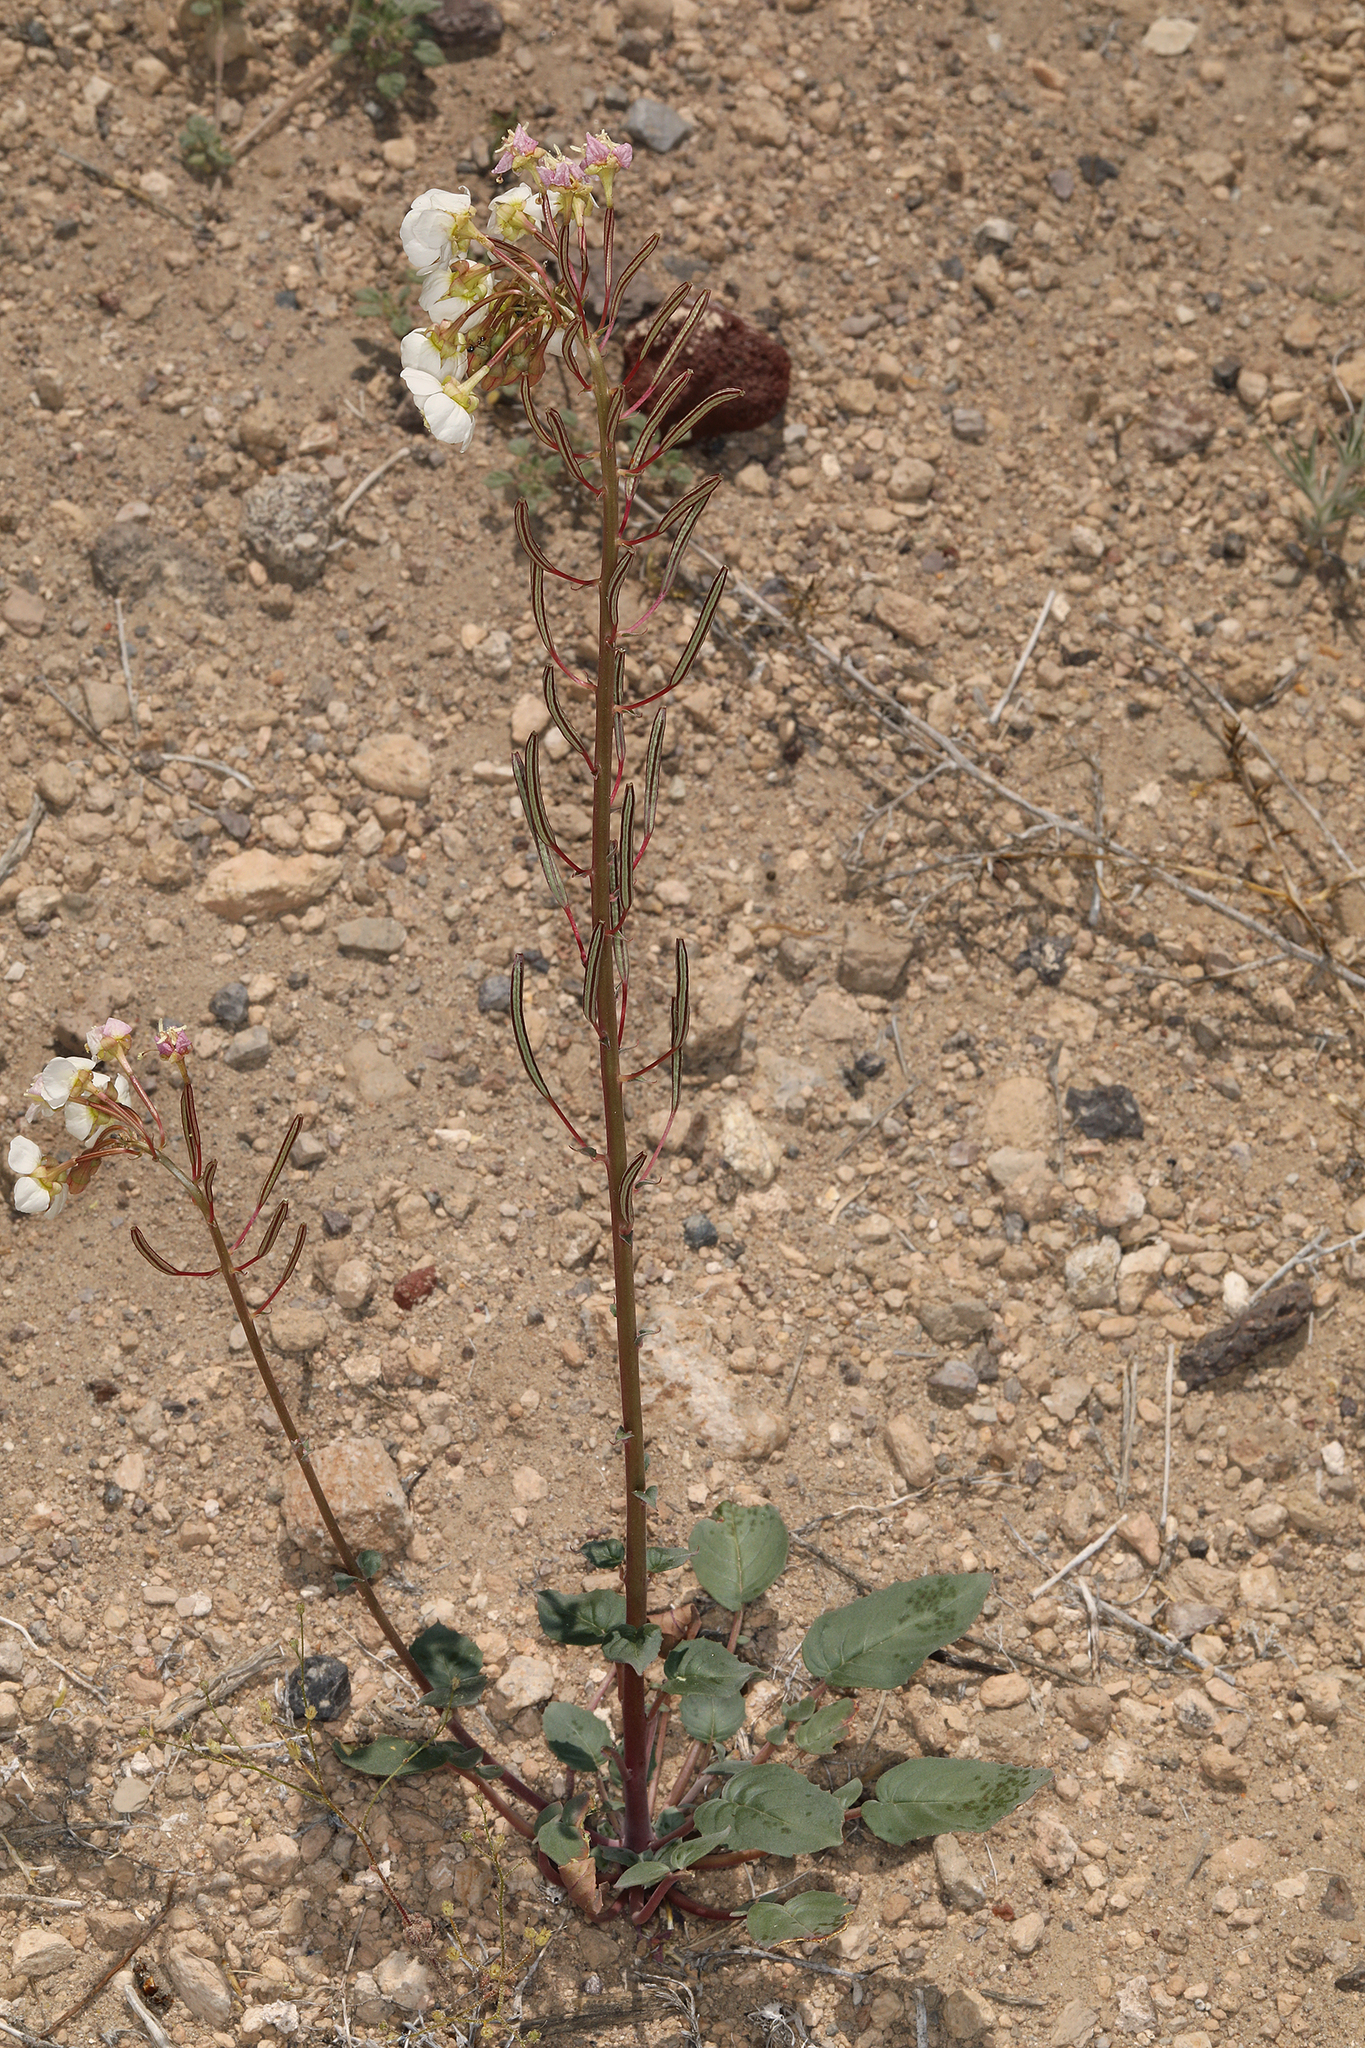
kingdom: Plantae
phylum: Tracheophyta
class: Magnoliopsida
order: Myrtales
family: Onagraceae
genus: Chylismia
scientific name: Chylismia claviformis
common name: Browneyes
